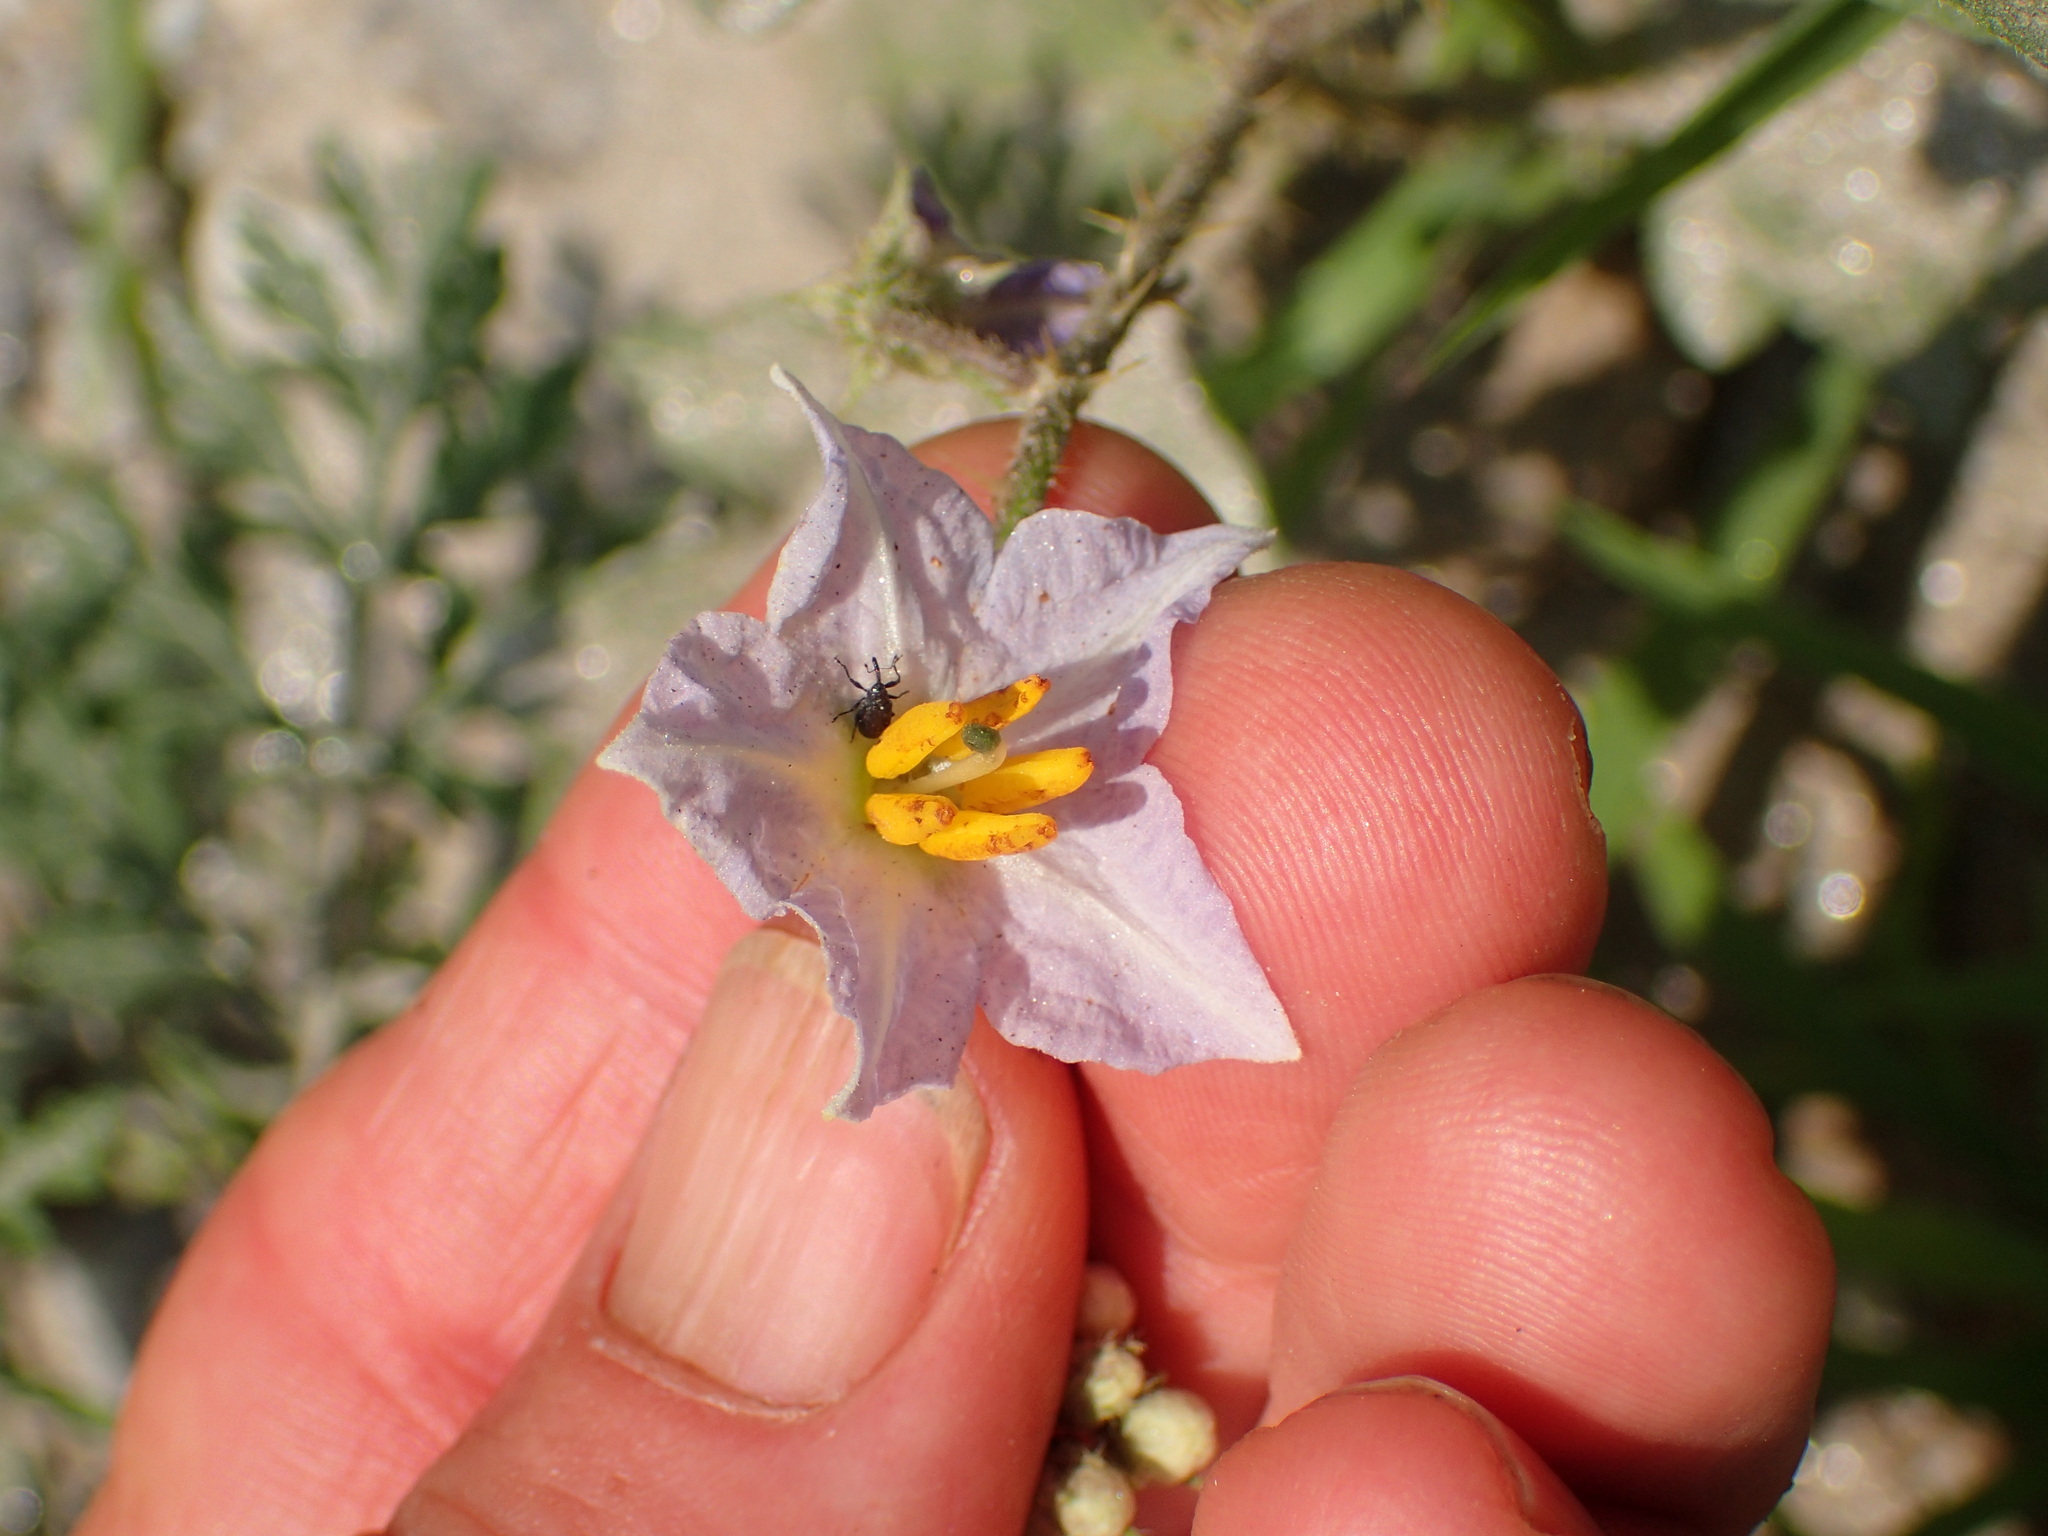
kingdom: Plantae
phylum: Tracheophyta
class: Magnoliopsida
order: Solanales
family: Solanaceae
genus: Solanum
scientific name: Solanum carolinense
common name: Horse-nettle
